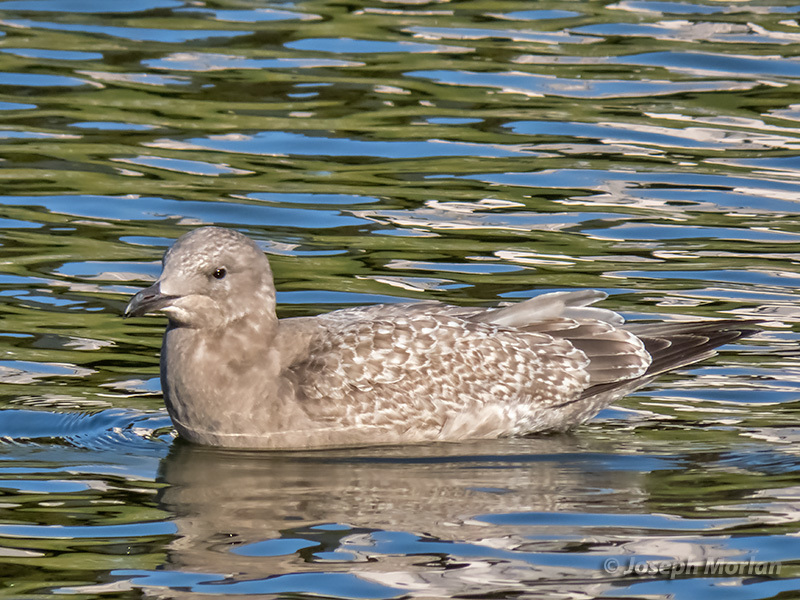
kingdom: Animalia
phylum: Chordata
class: Aves
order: Charadriiformes
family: Laridae
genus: Larus
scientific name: Larus glaucoides
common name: Iceland gull
